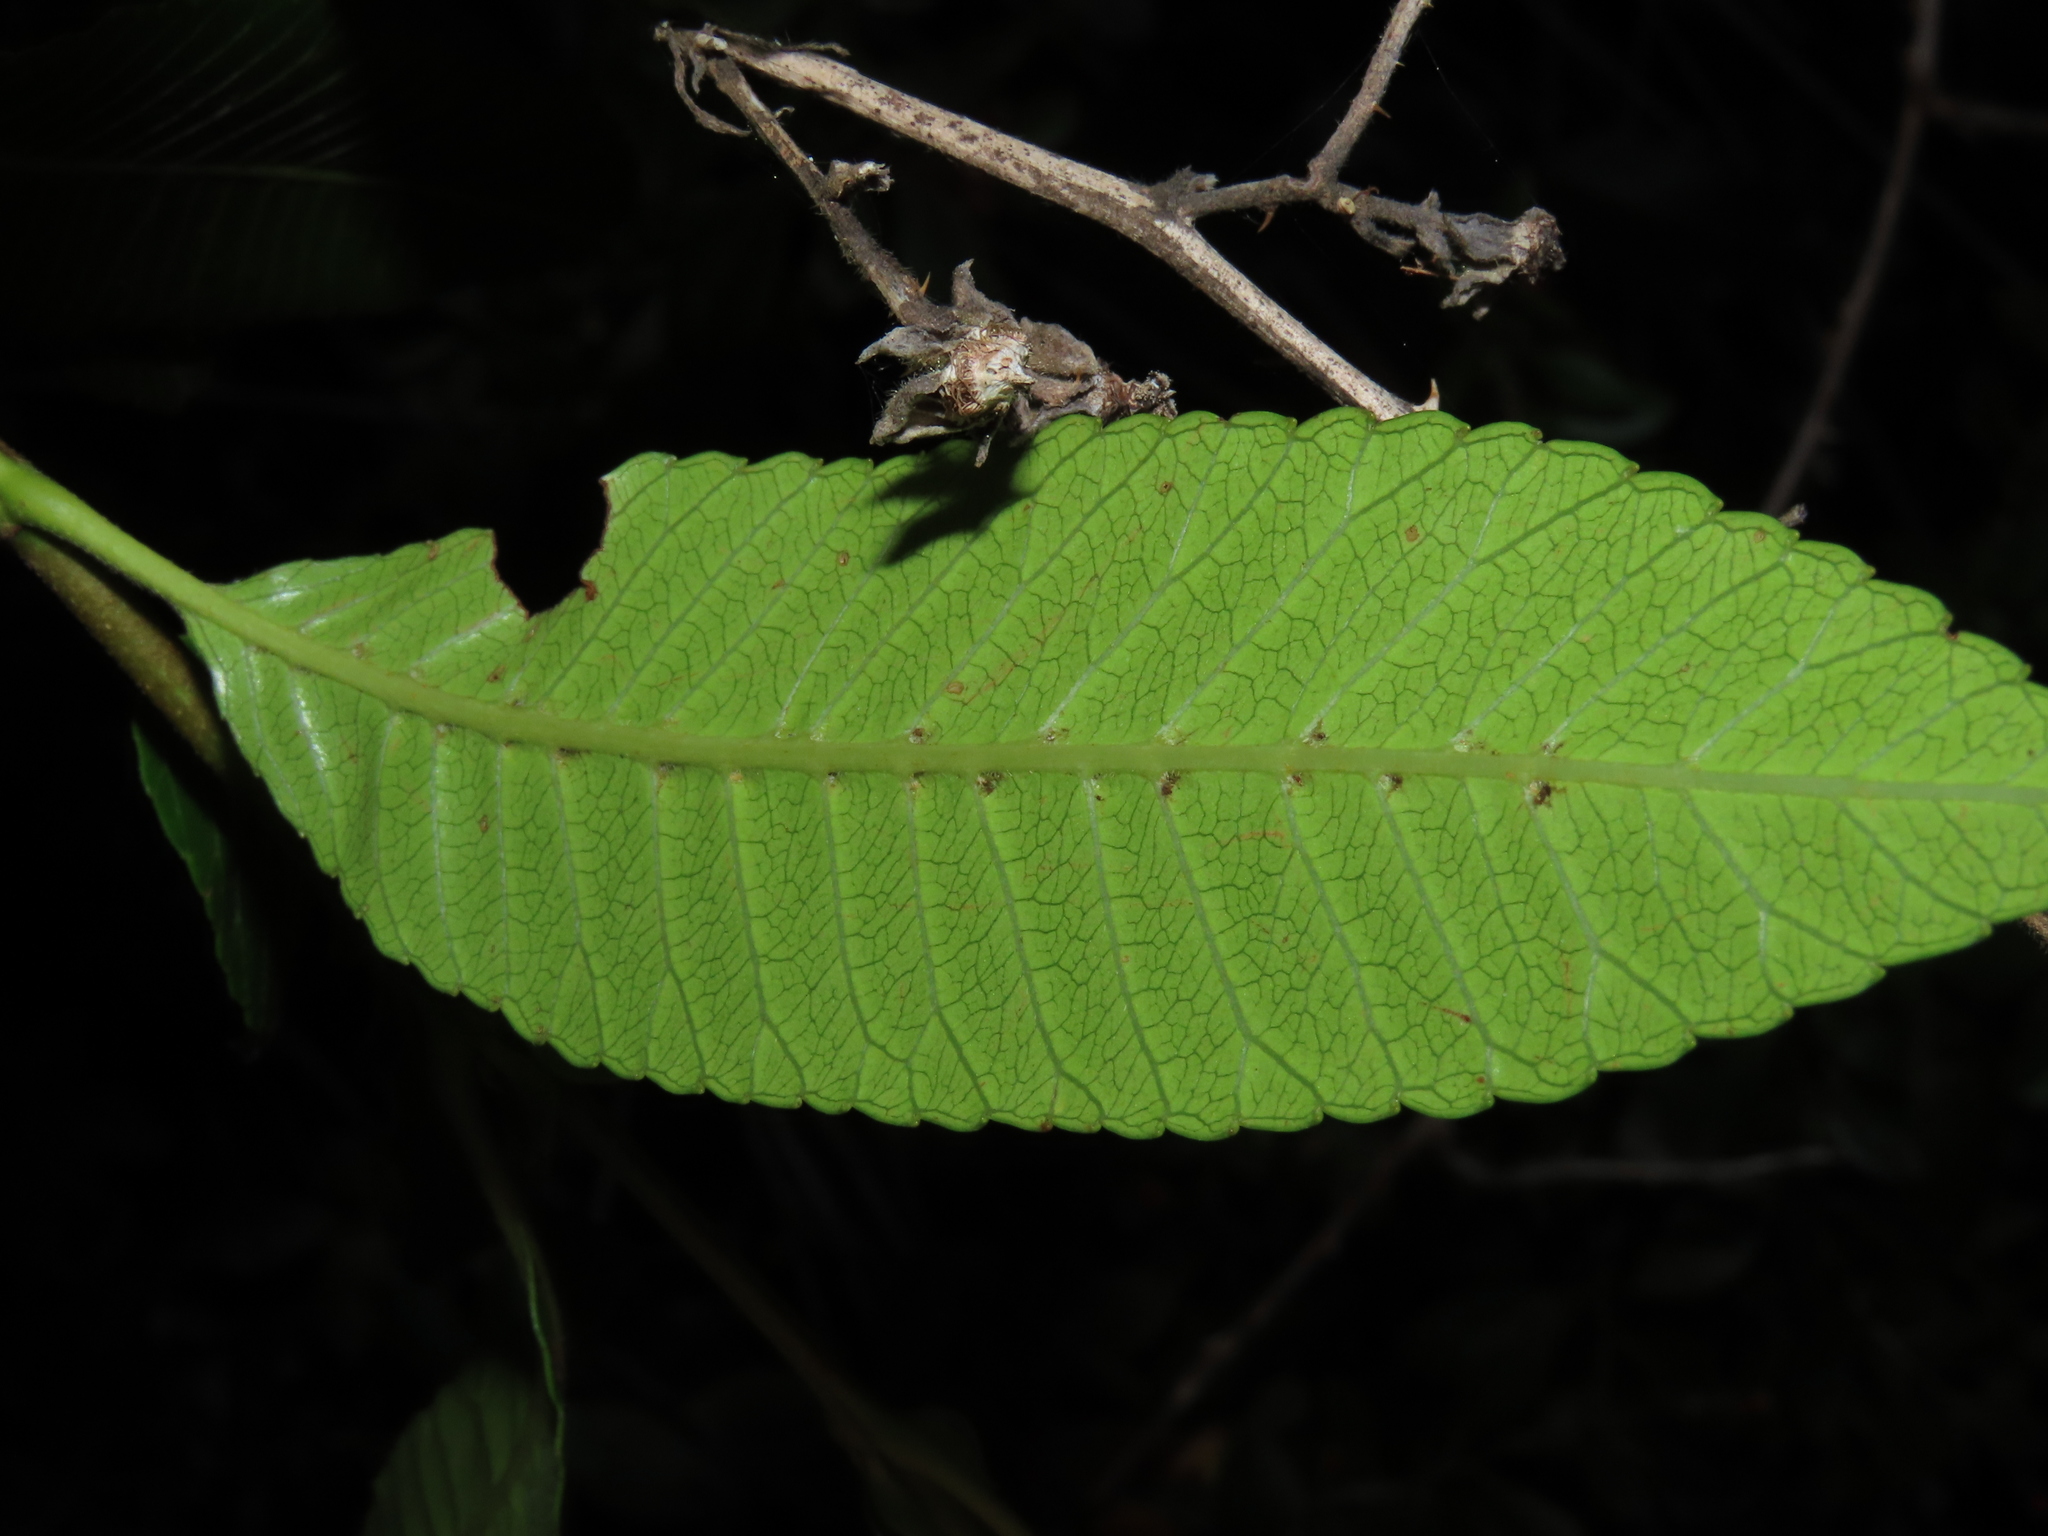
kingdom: Plantae
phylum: Tracheophyta
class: Magnoliopsida
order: Oxalidales
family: Cunoniaceae
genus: Caldcluvia
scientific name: Caldcluvia paniculata
